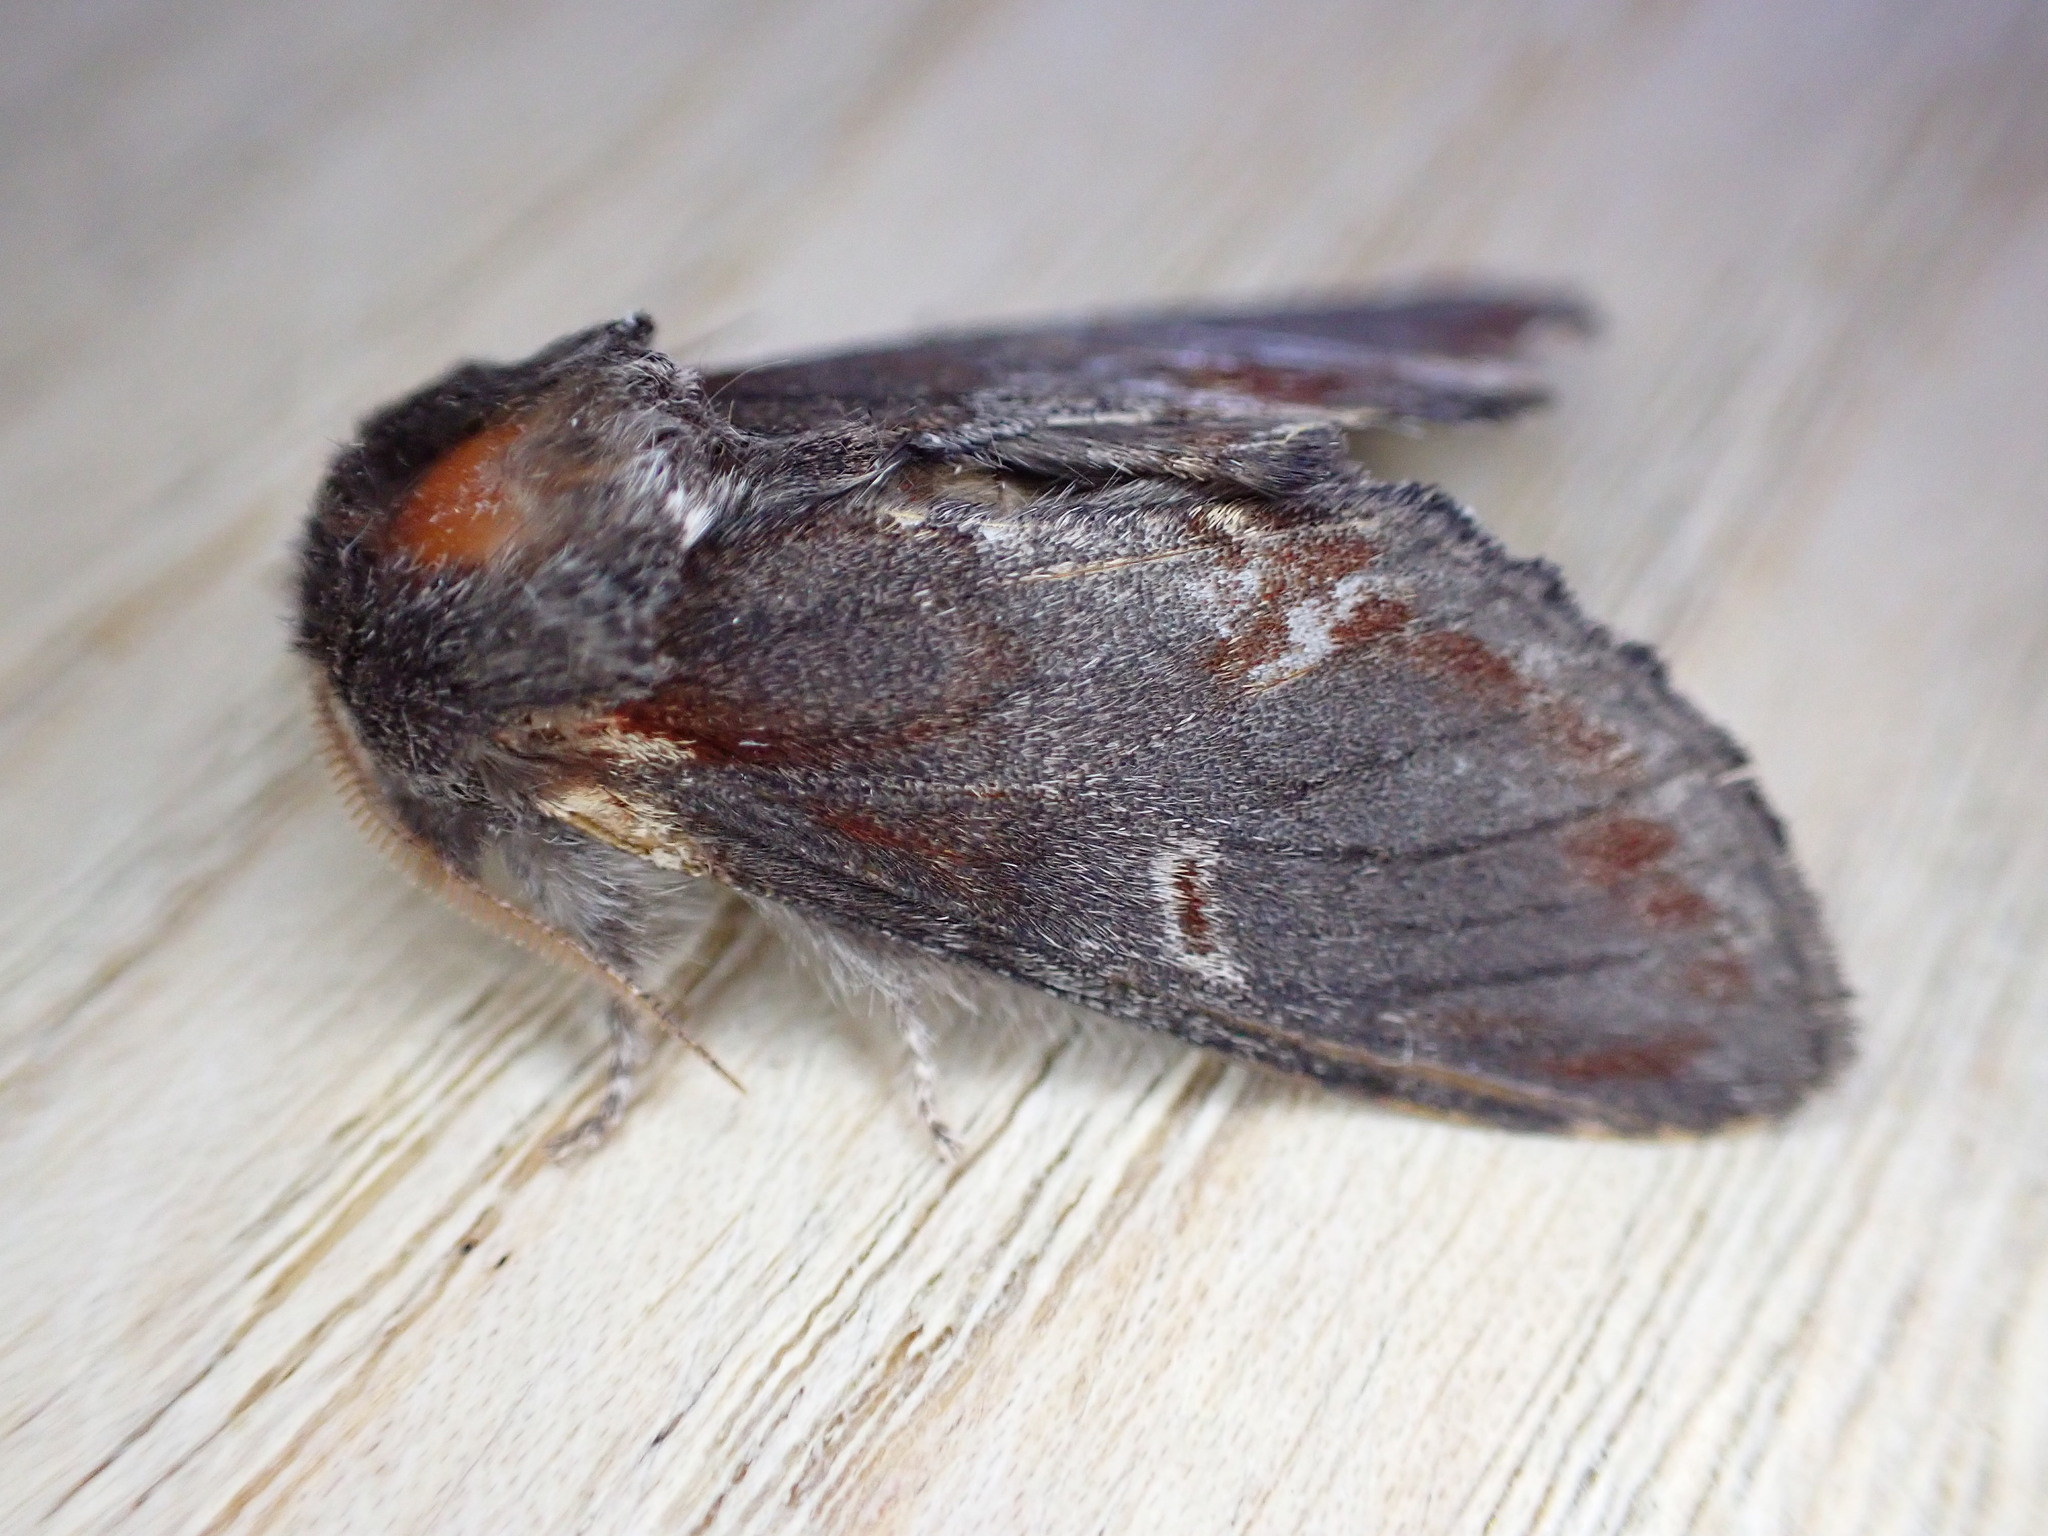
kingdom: Animalia
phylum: Arthropoda
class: Insecta
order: Lepidoptera
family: Notodontidae
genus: Notodonta
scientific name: Notodonta dromedarius
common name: Iron prominent
